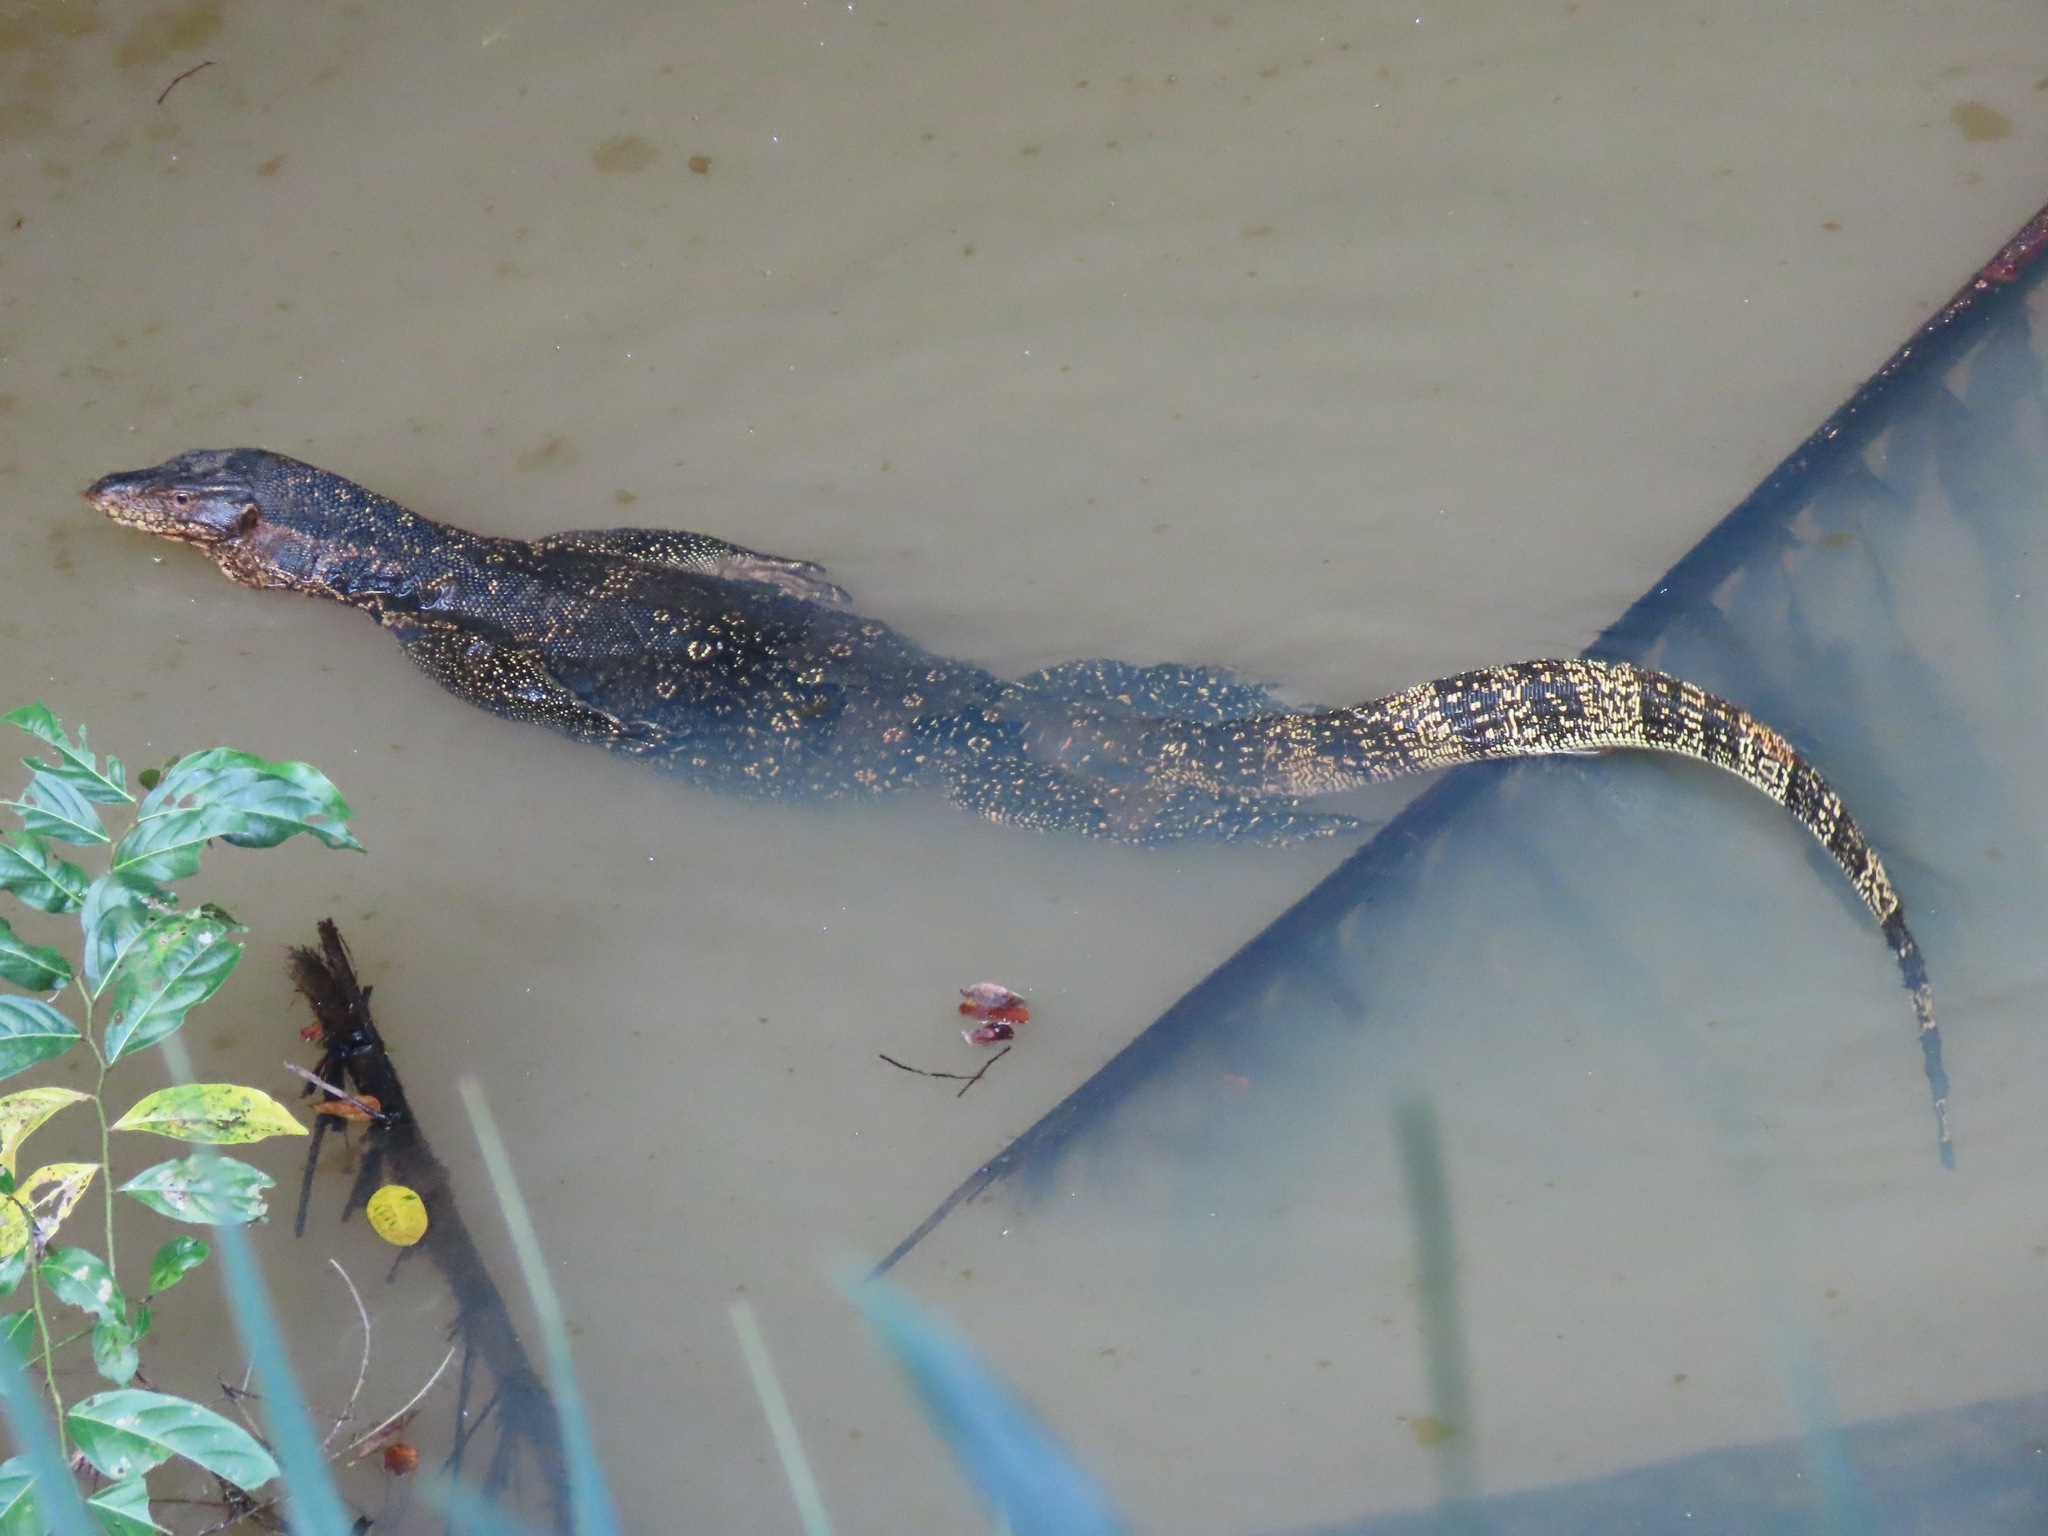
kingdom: Animalia
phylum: Chordata
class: Squamata
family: Varanidae
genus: Varanus
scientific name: Varanus salvator
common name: Common water monitor
